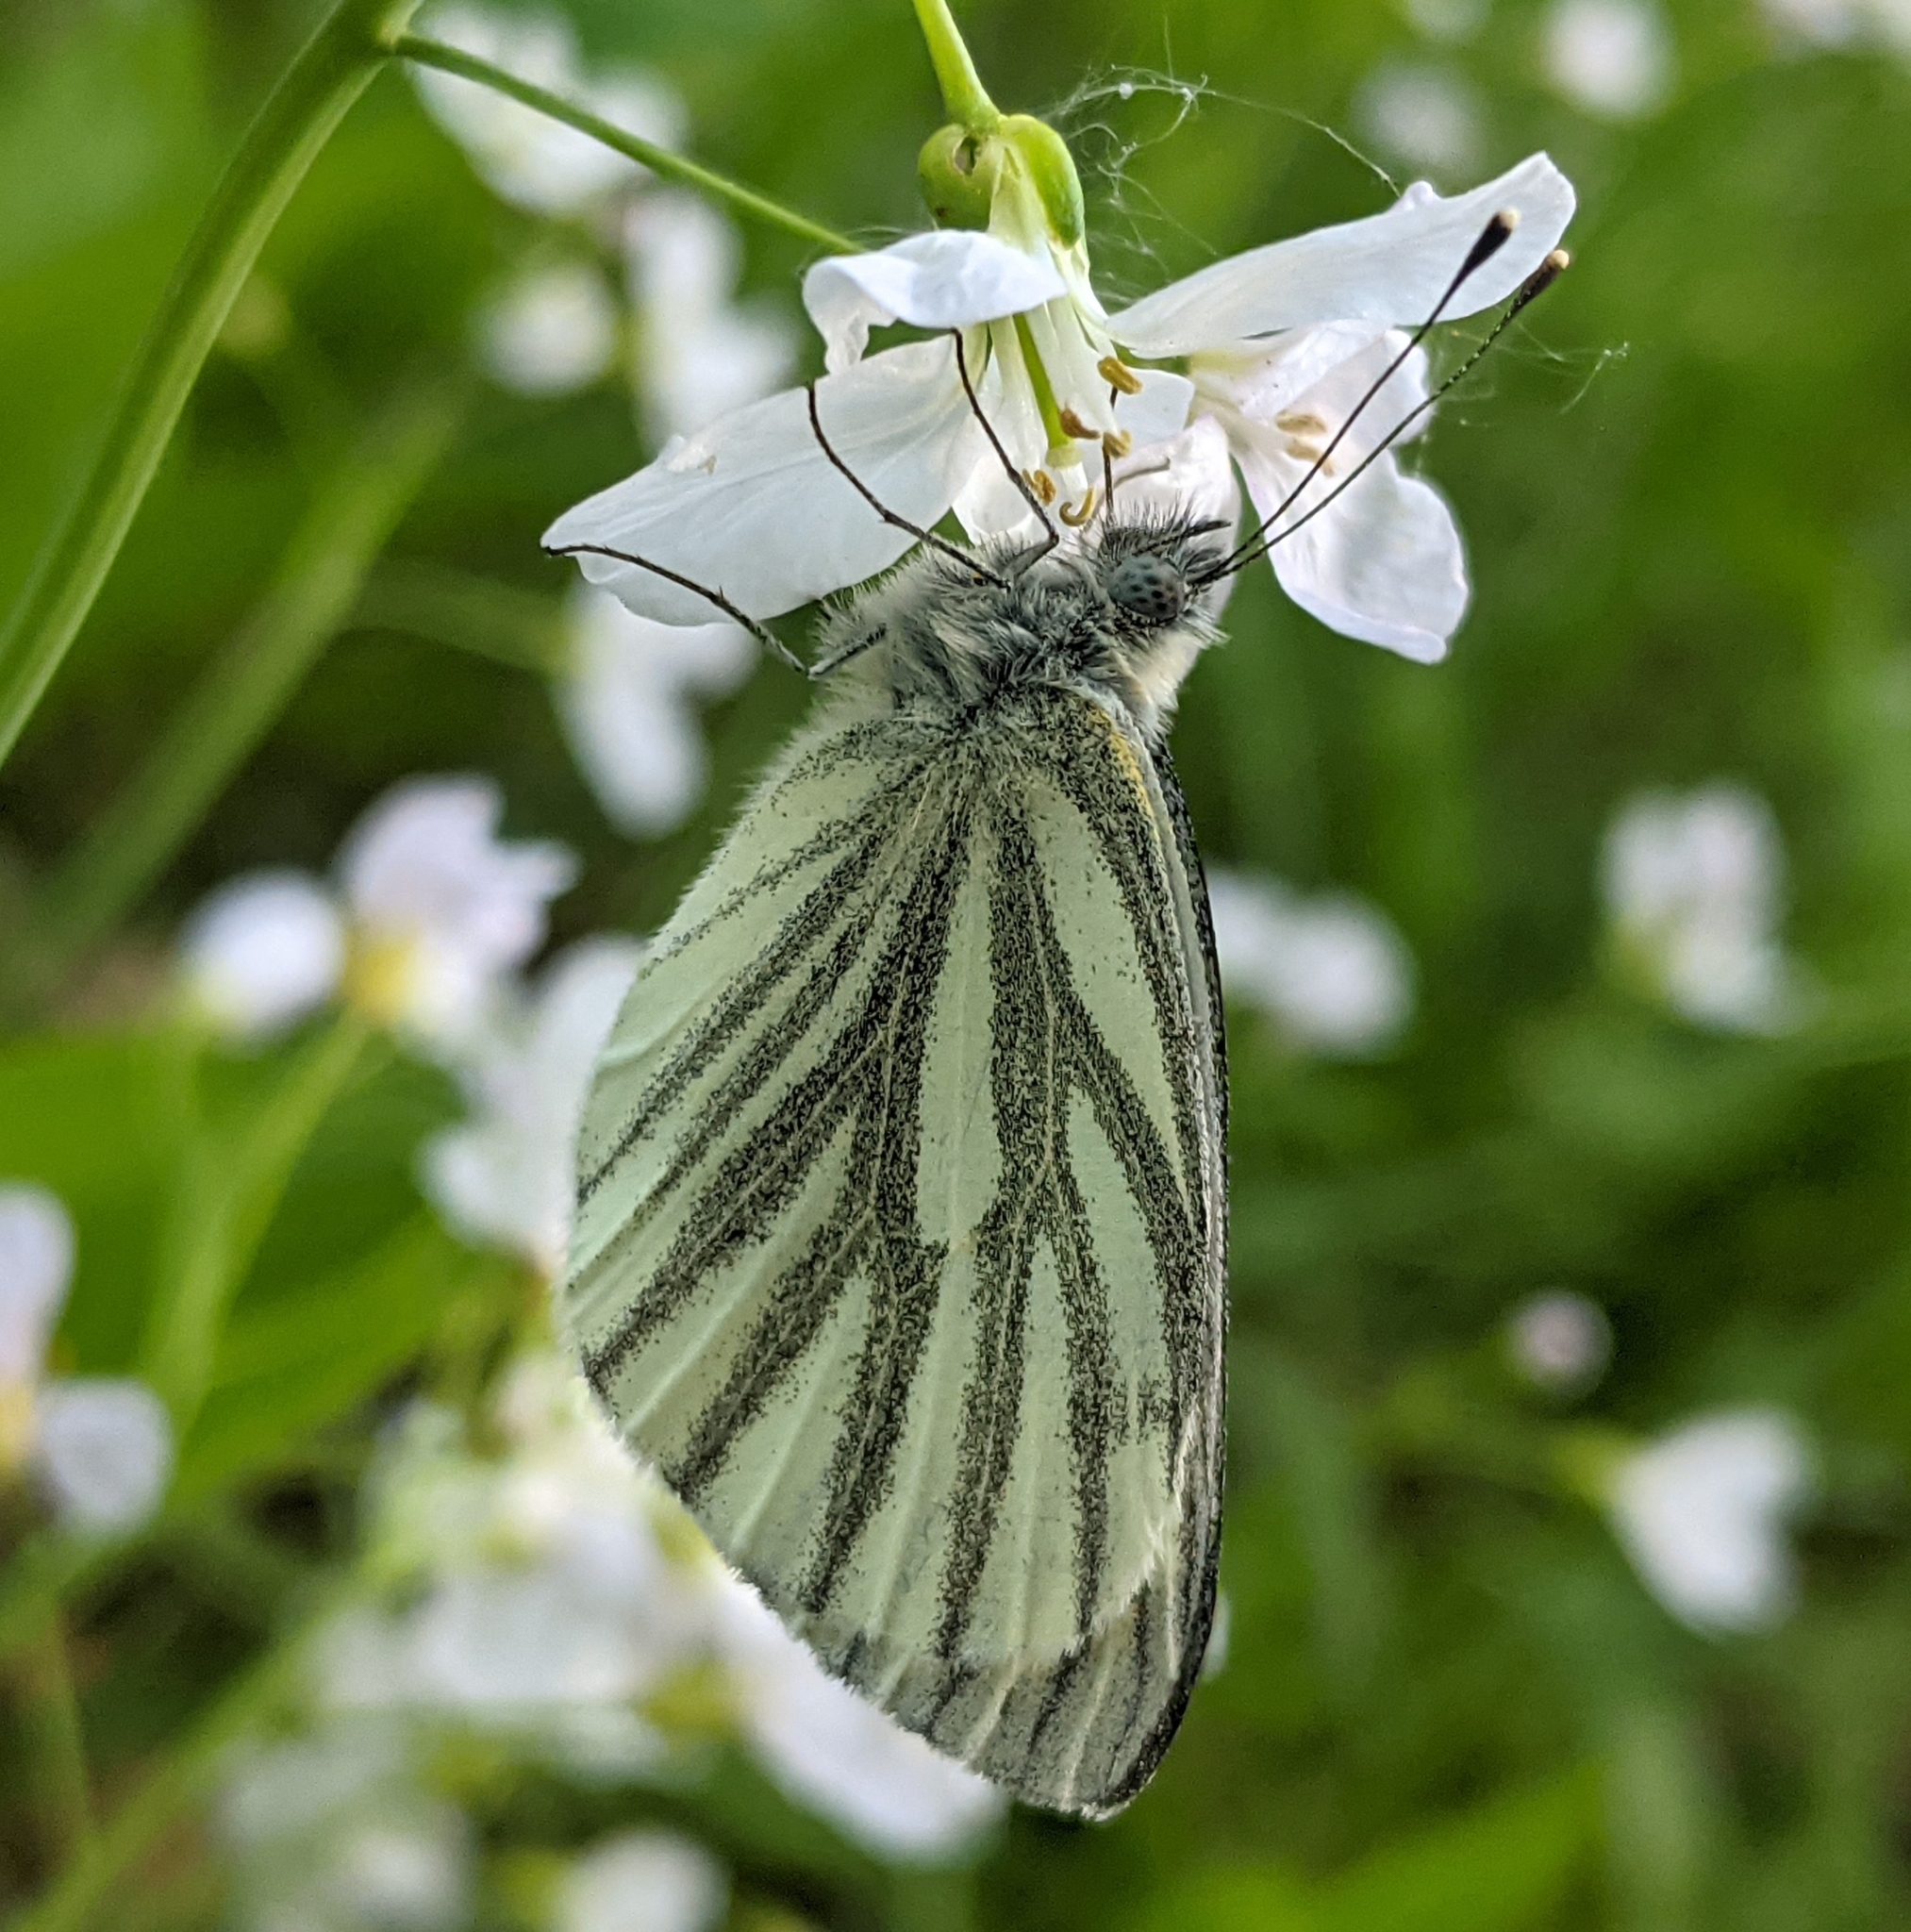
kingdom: Animalia
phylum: Arthropoda
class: Insecta
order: Lepidoptera
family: Pieridae
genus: Pieris
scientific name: Pieris napi
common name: Green-veined white
